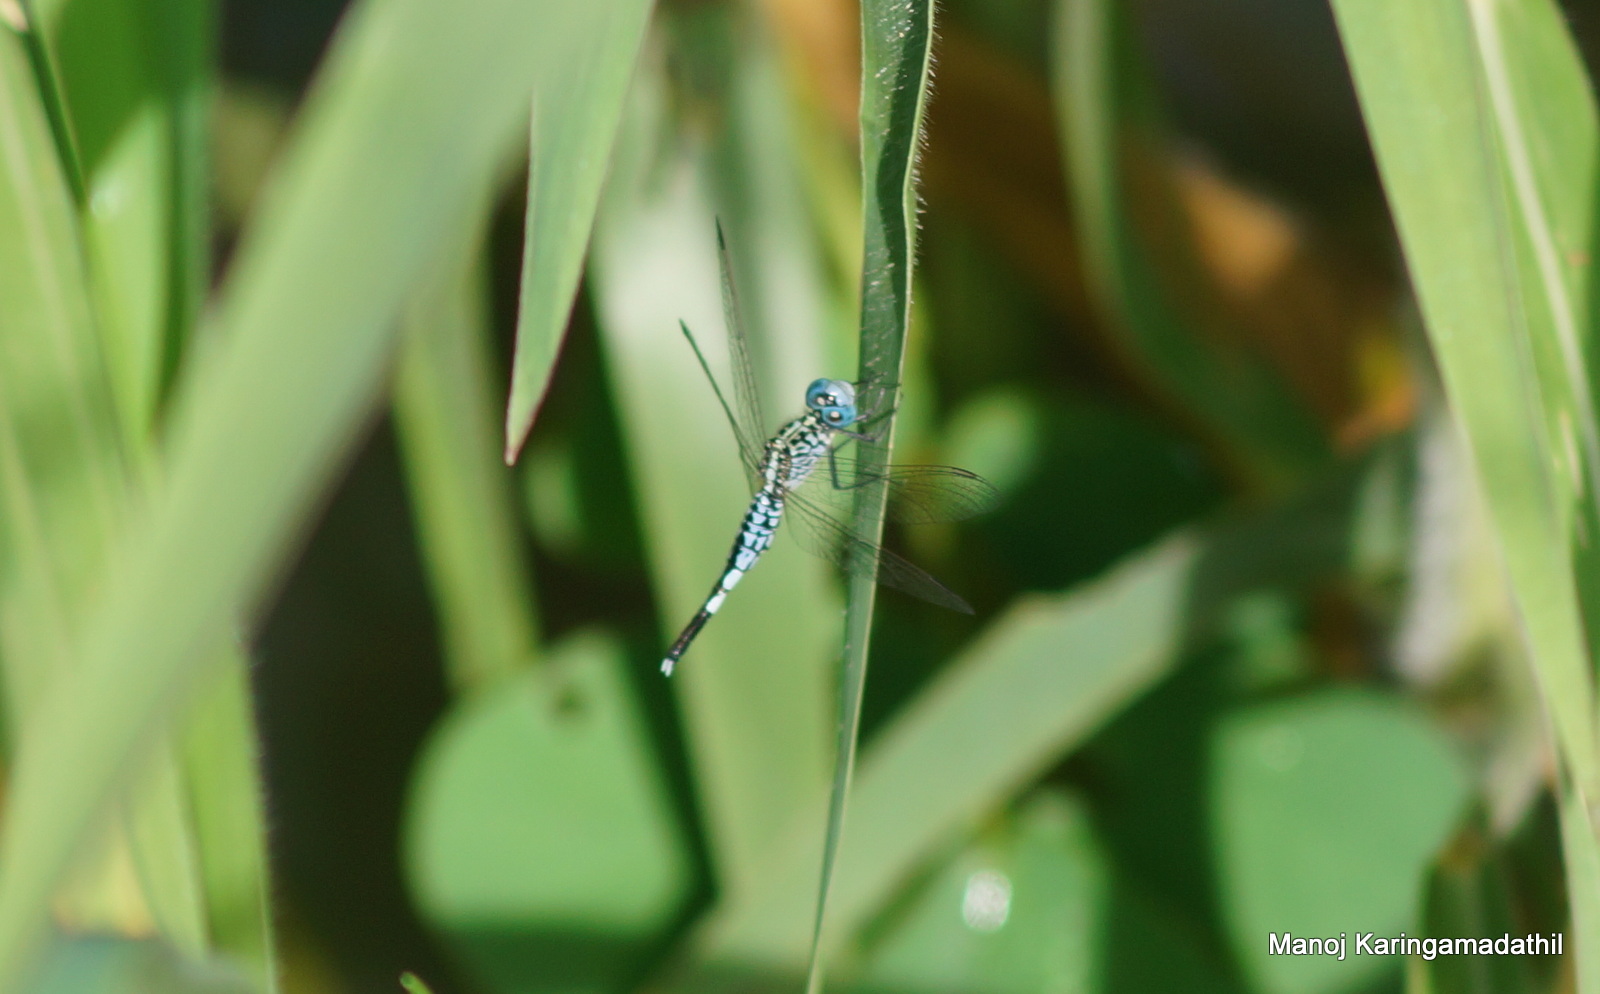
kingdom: Animalia
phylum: Arthropoda
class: Insecta
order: Odonata
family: Libellulidae
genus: Acisoma
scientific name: Acisoma panorpoides
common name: Asian pintail
